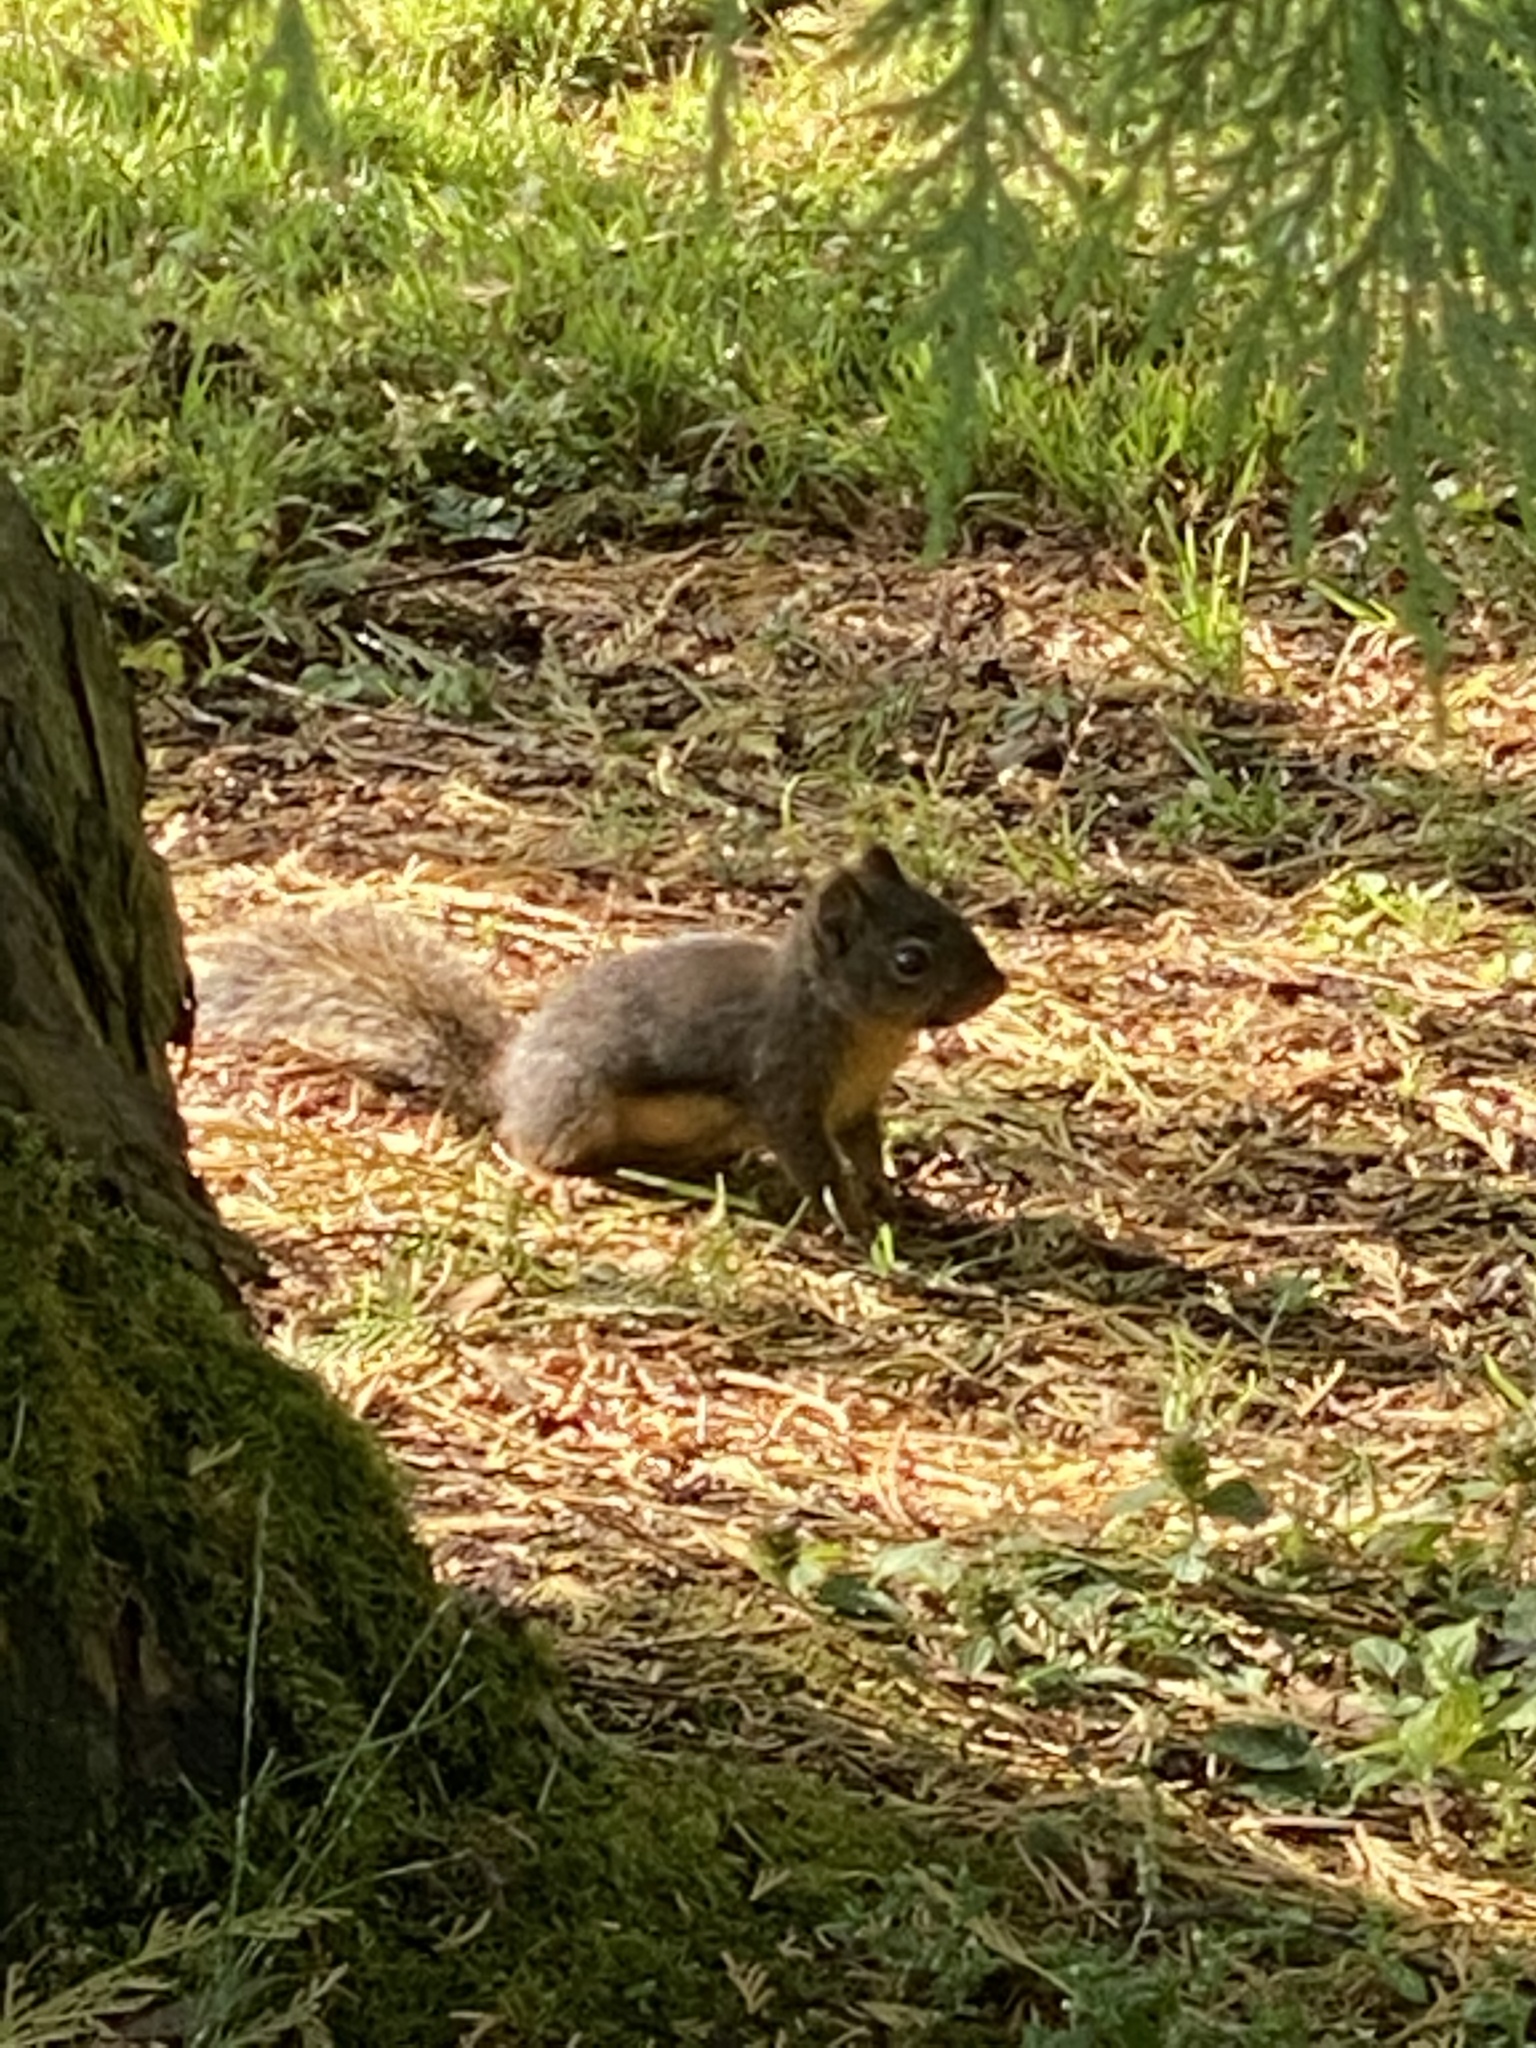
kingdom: Animalia
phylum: Chordata
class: Mammalia
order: Rodentia
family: Sciuridae
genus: Tamiasciurus
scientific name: Tamiasciurus douglasii
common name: Douglas's squirrel
